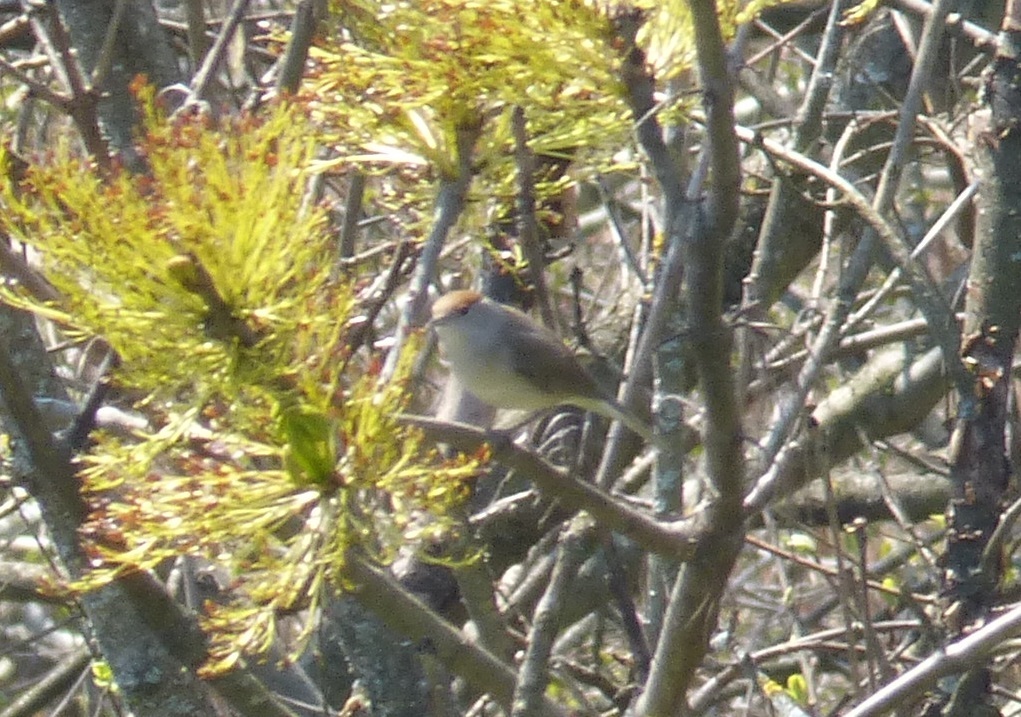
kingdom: Animalia
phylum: Chordata
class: Aves
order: Passeriformes
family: Sylviidae
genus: Sylvia
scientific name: Sylvia atricapilla
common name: Eurasian blackcap
